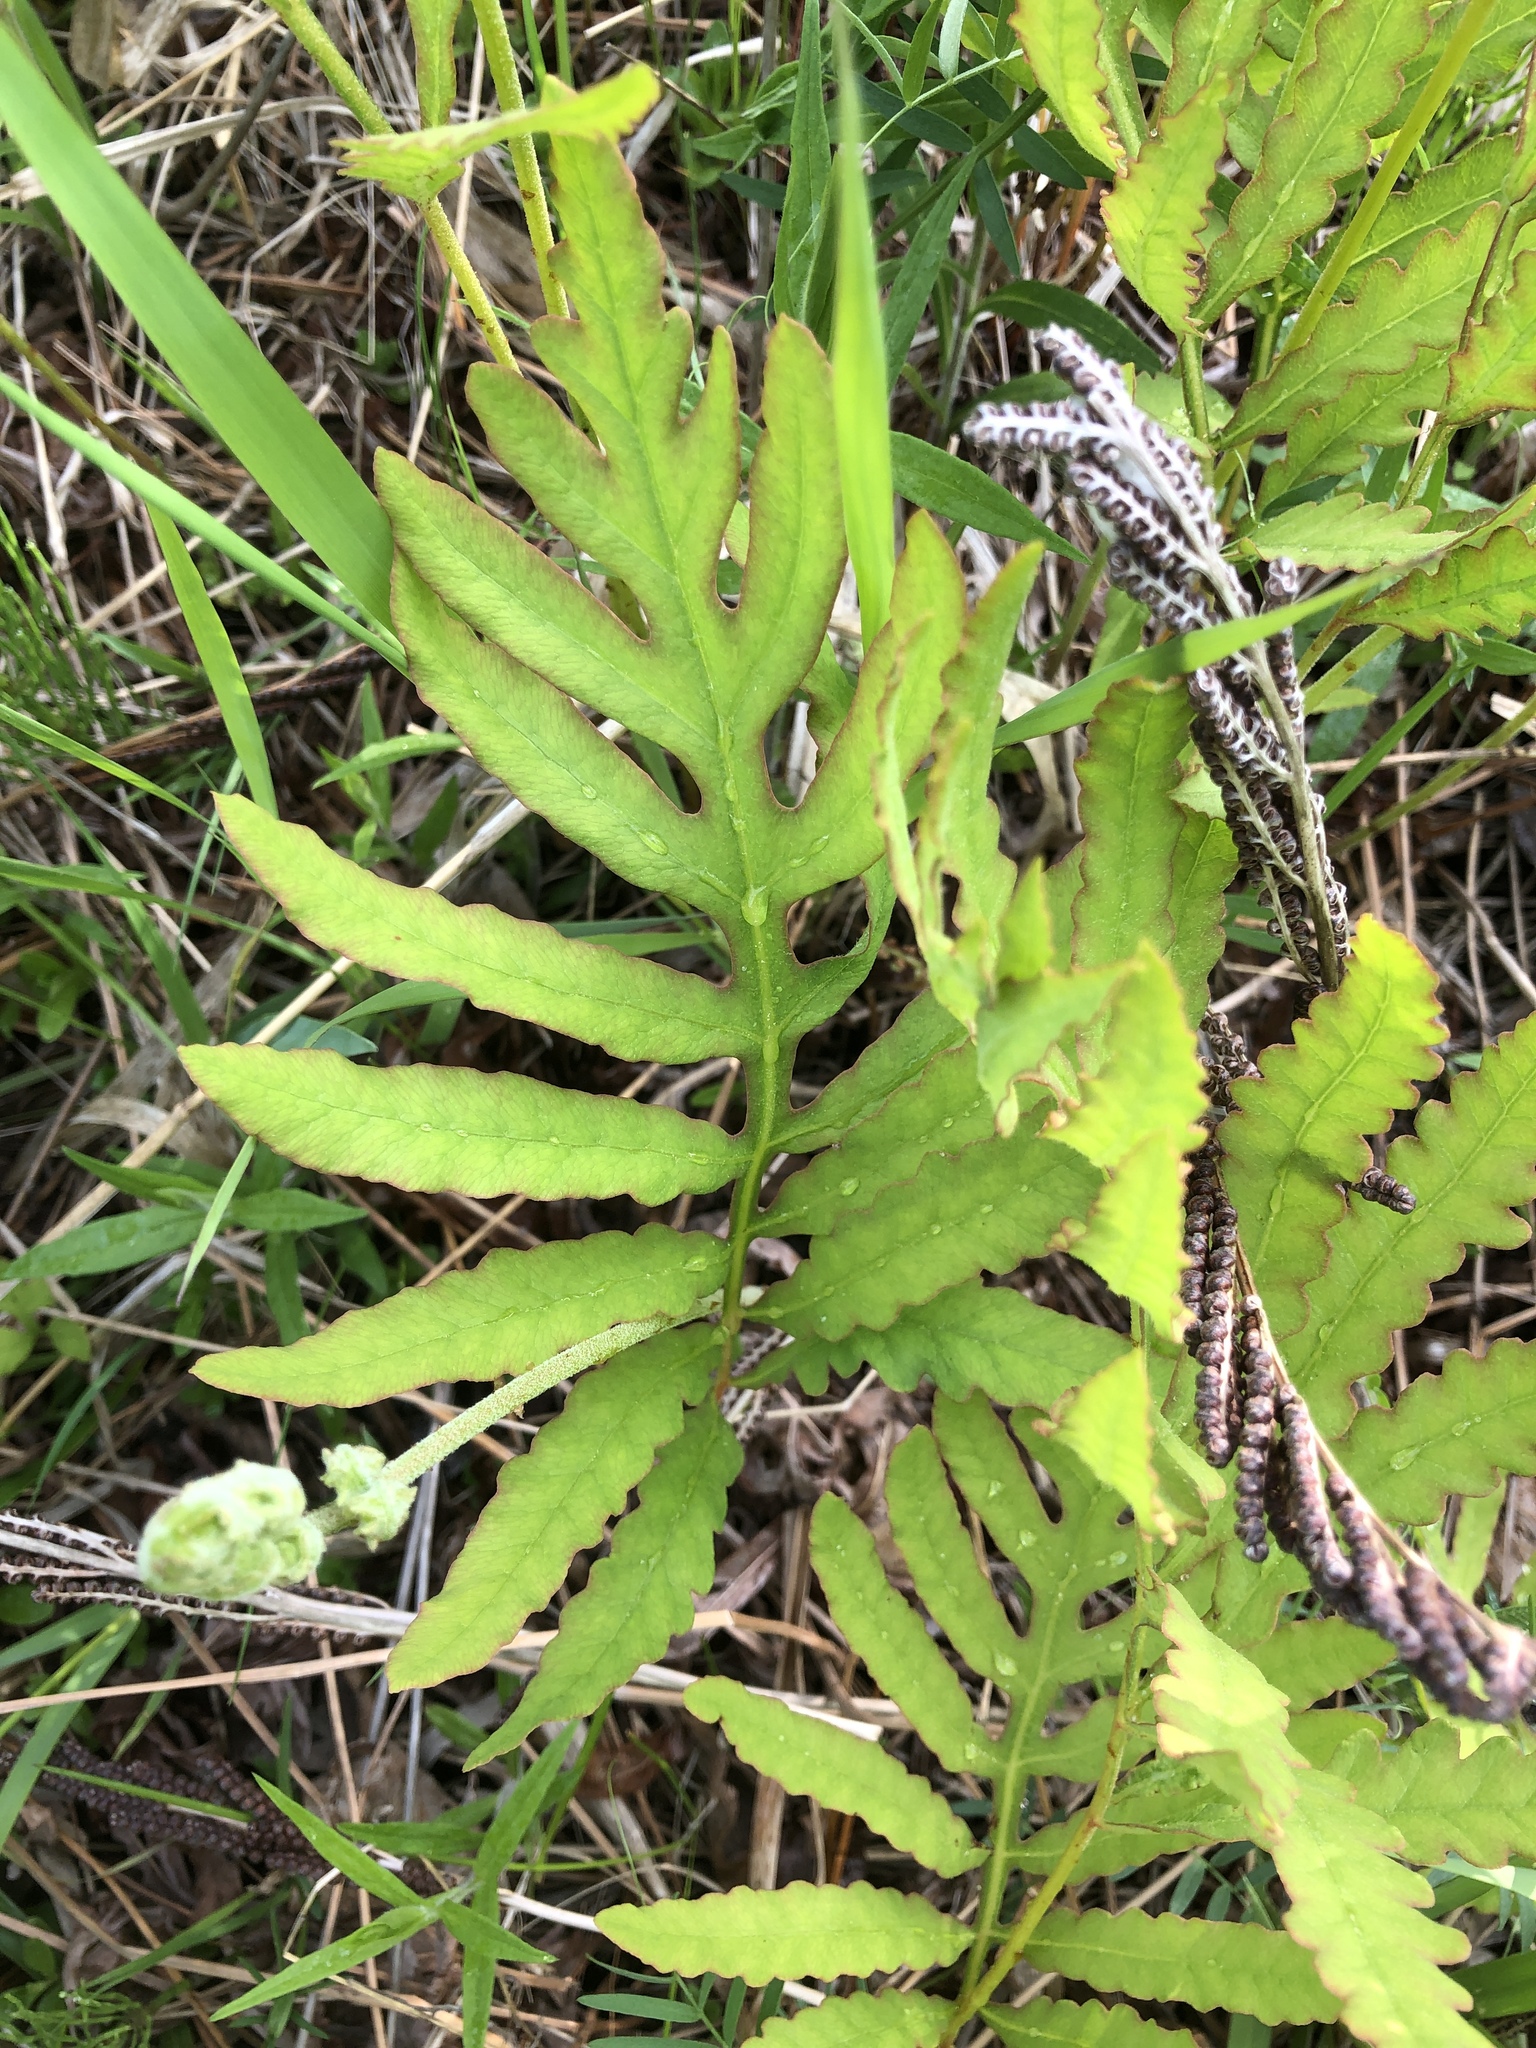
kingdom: Plantae
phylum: Tracheophyta
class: Polypodiopsida
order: Polypodiales
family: Onocleaceae
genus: Onoclea
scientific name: Onoclea sensibilis
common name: Sensitive fern
